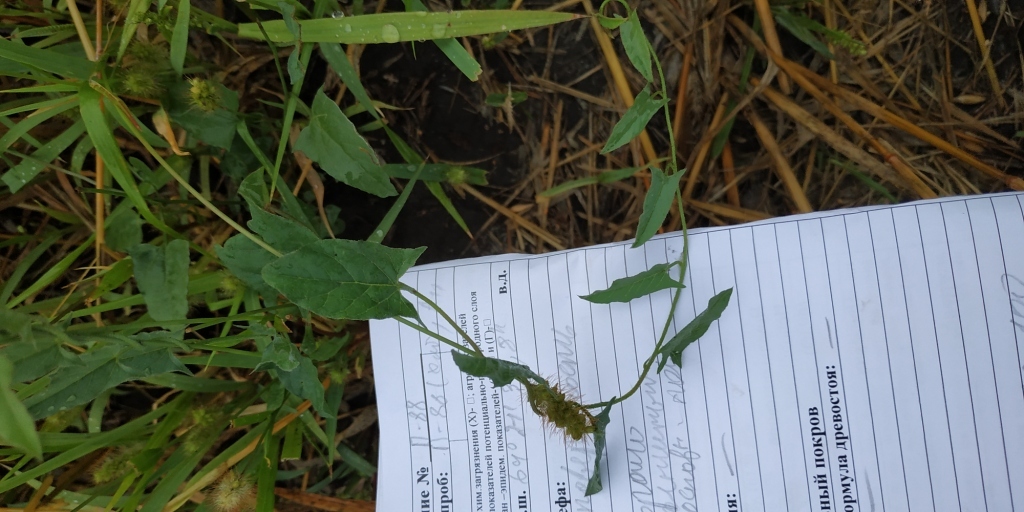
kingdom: Plantae
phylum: Tracheophyta
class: Magnoliopsida
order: Solanales
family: Convolvulaceae
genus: Convolvulus
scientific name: Convolvulus arvensis
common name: Field bindweed
